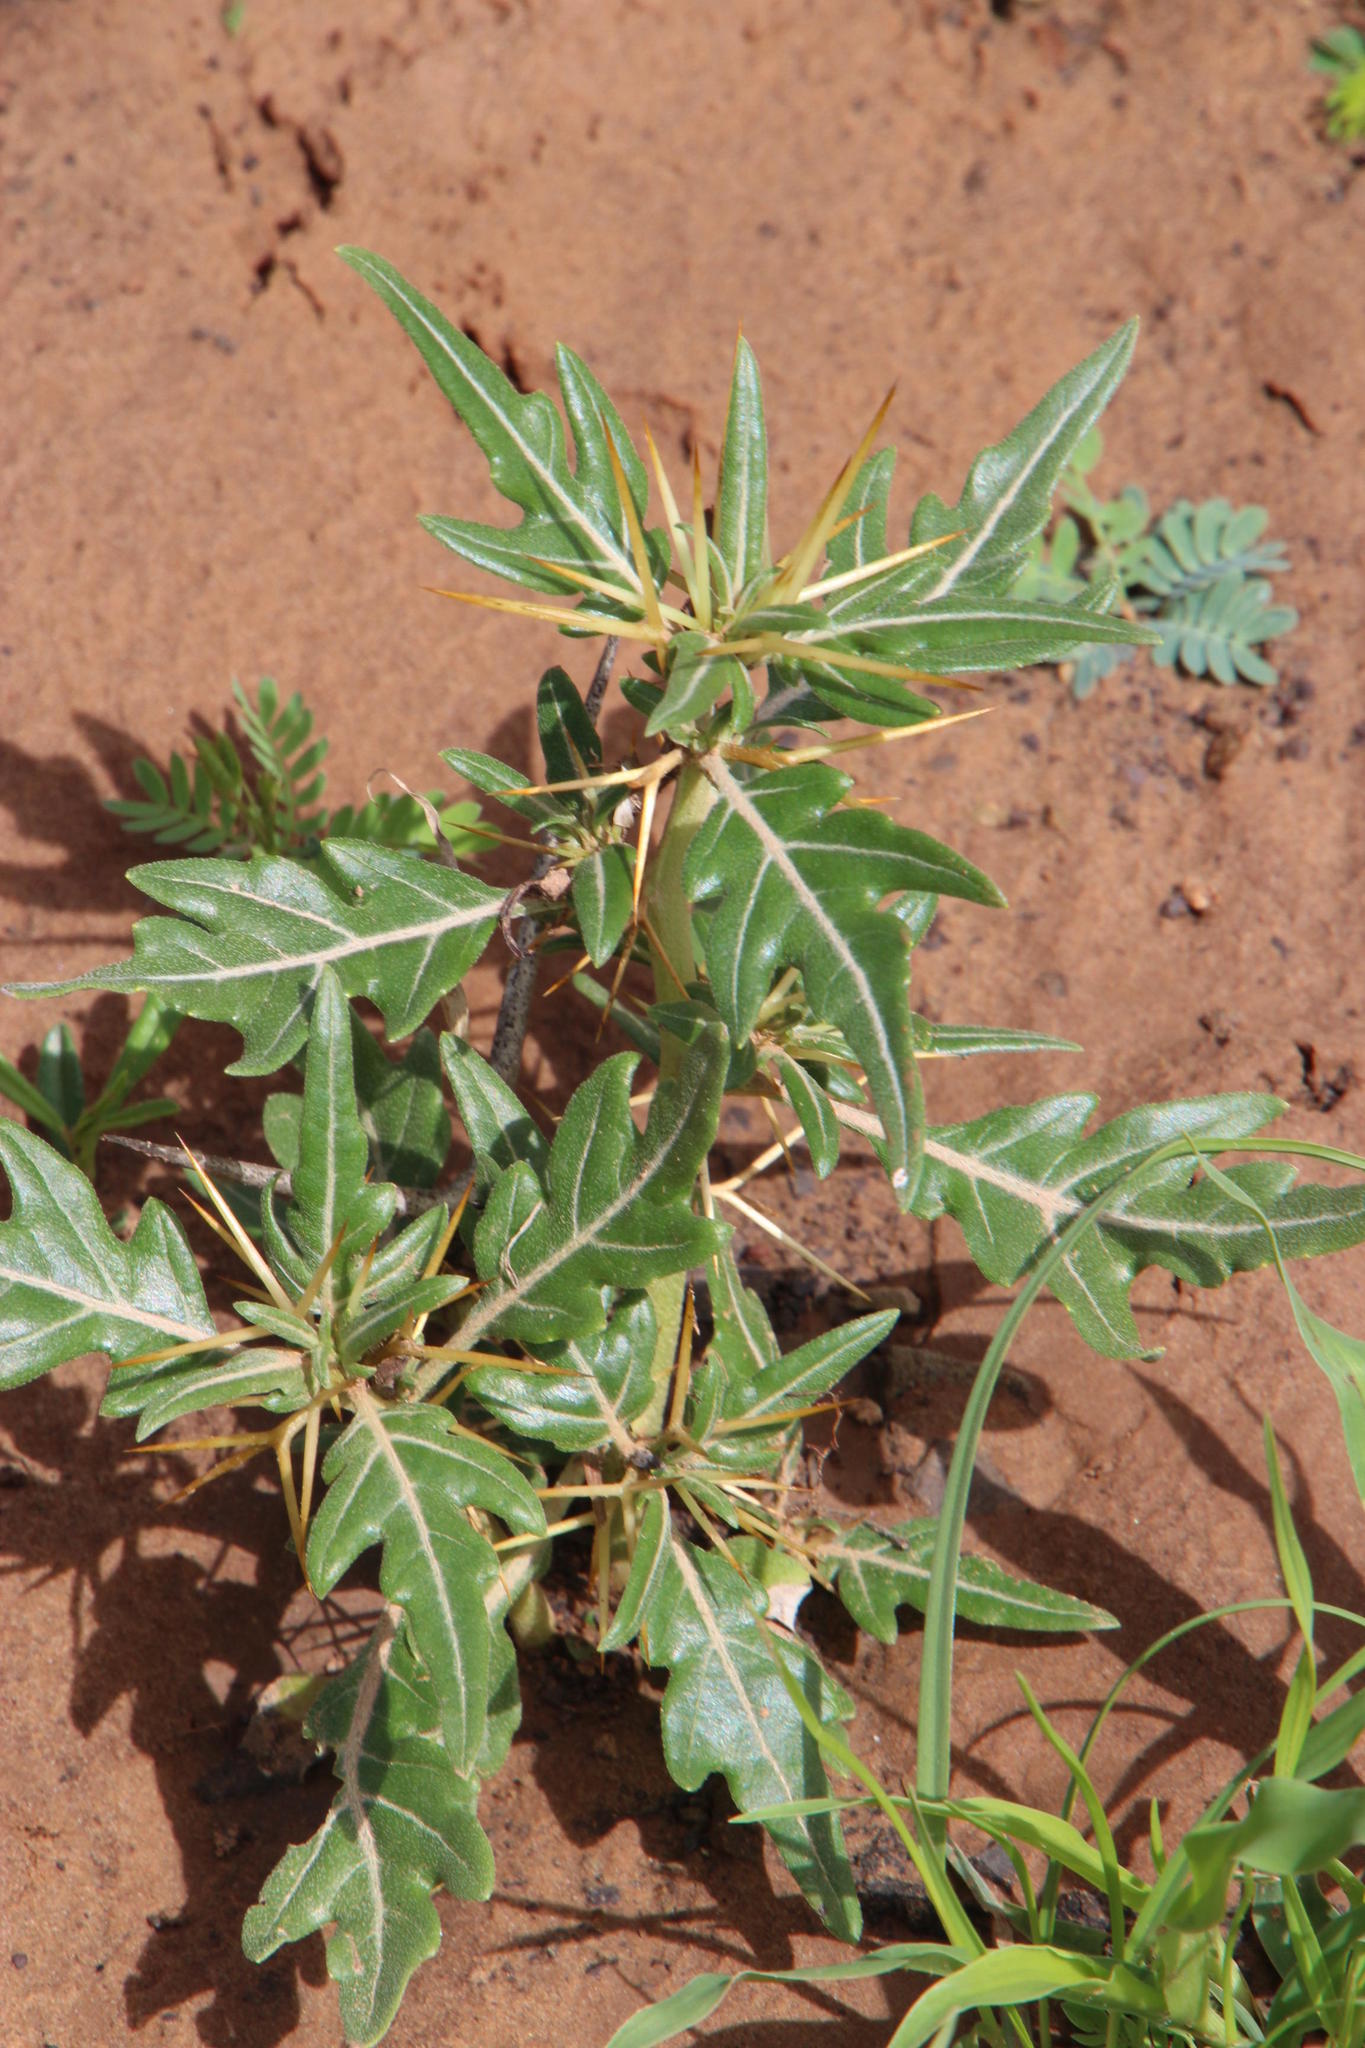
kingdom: Plantae
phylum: Tracheophyta
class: Magnoliopsida
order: Asterales
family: Asteraceae
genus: Xanthium
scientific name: Xanthium spinosum
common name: Spiny cocklebur
